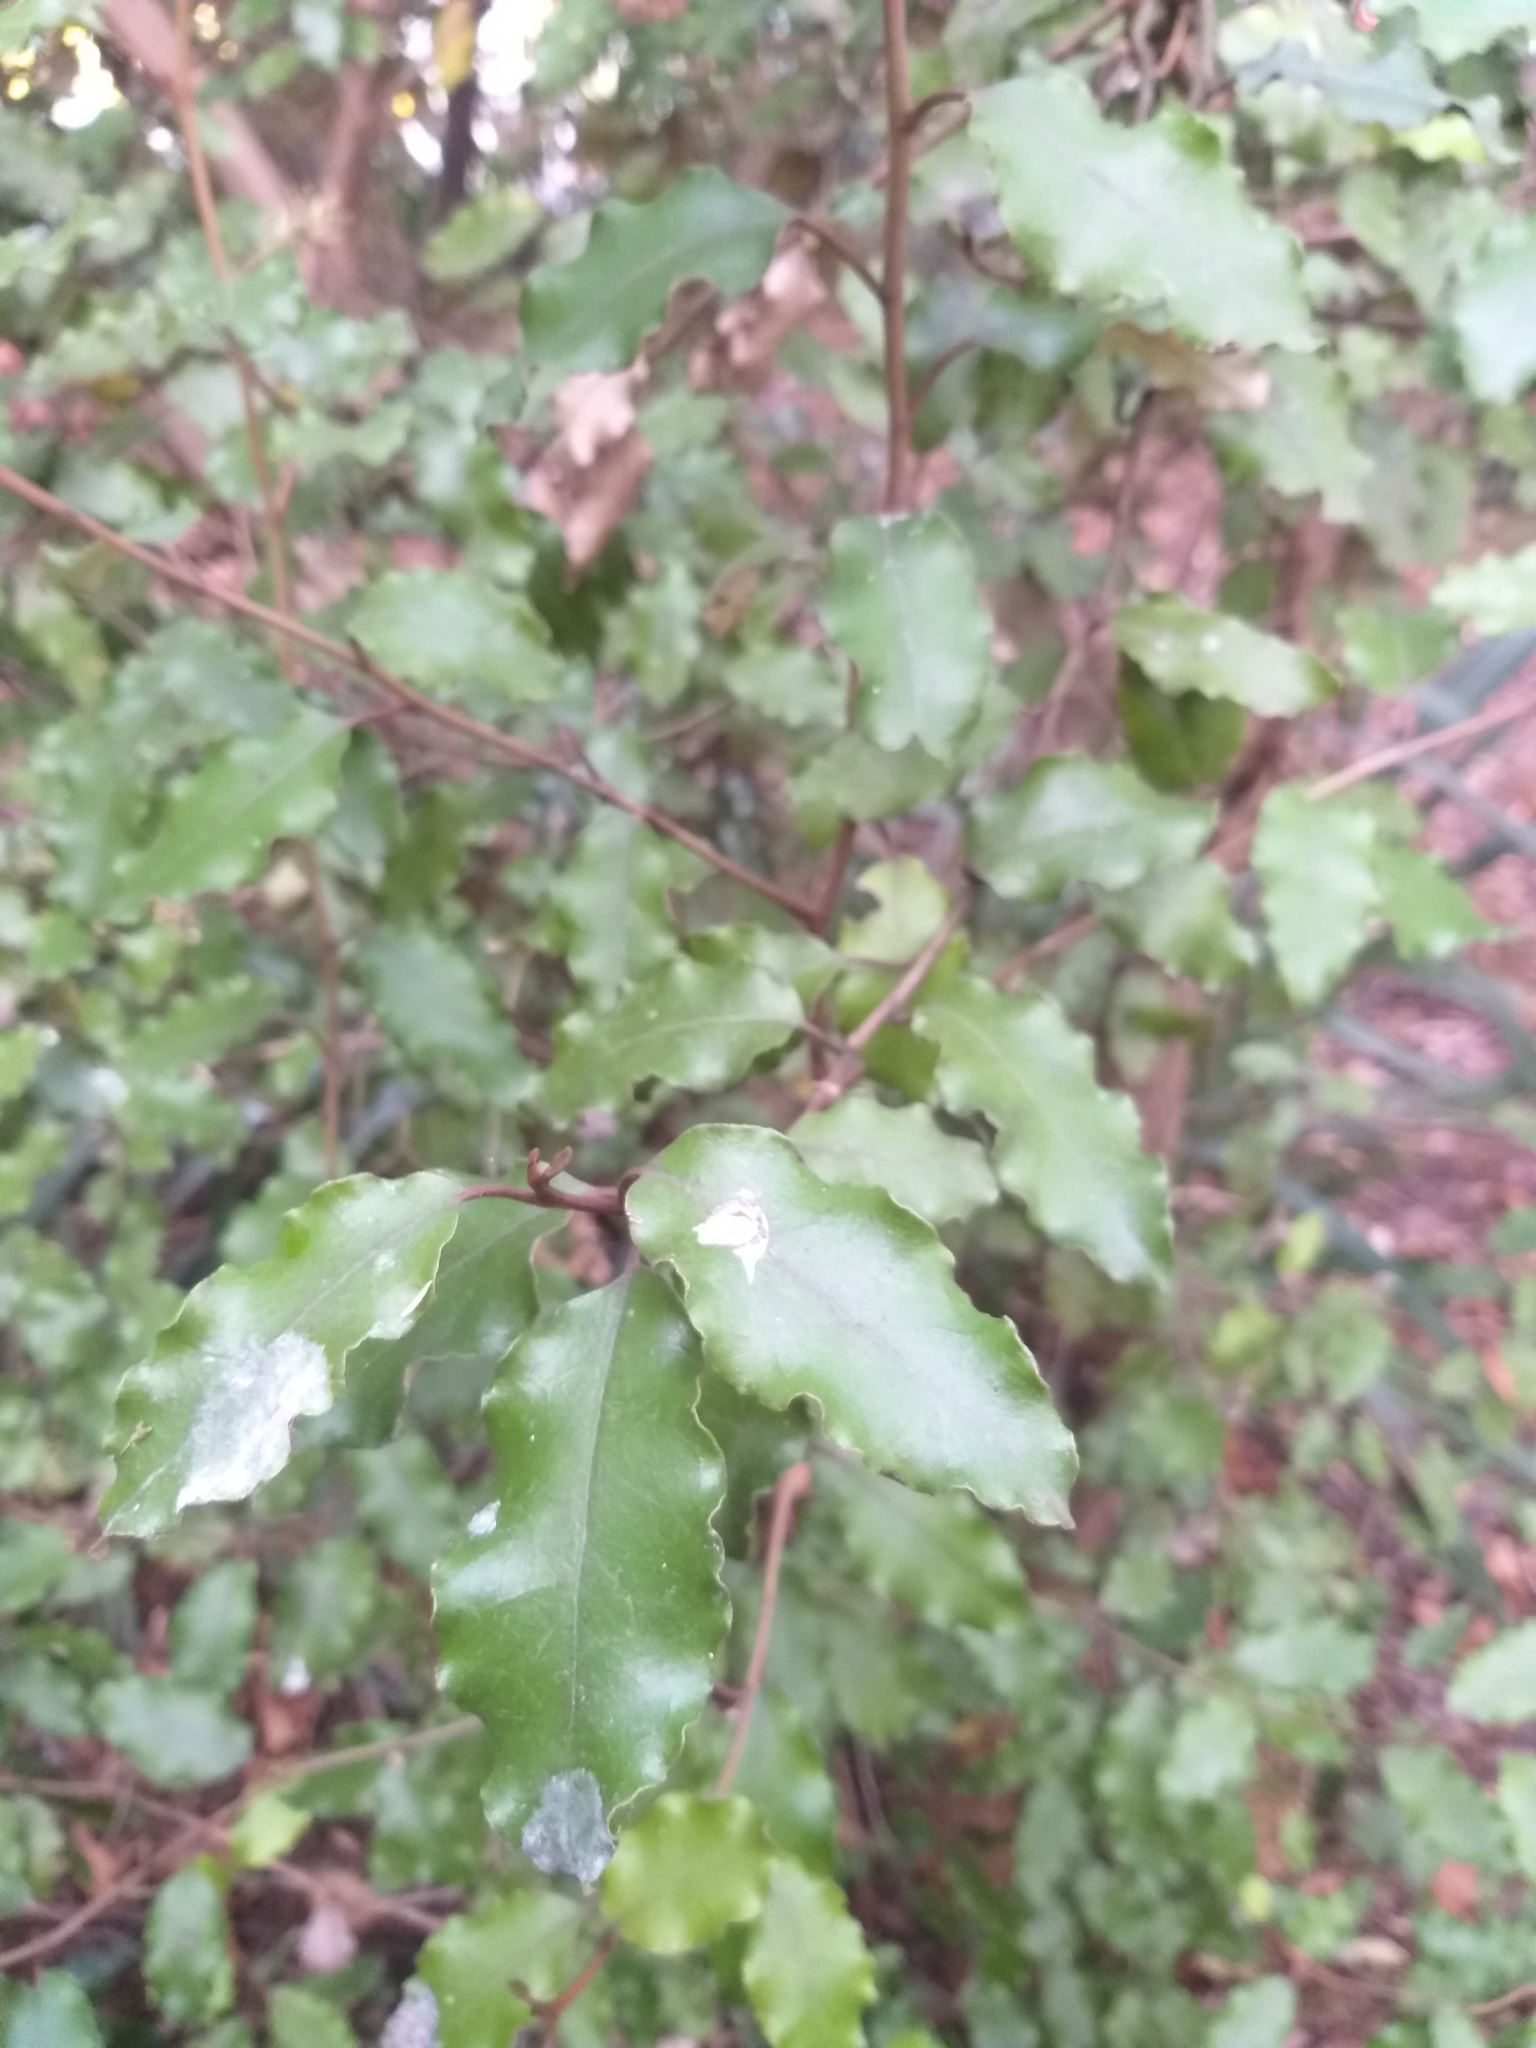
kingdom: Plantae
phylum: Tracheophyta
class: Magnoliopsida
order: Asterales
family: Asteraceae
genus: Olearia
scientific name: Olearia paniculata
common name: Akiraho
